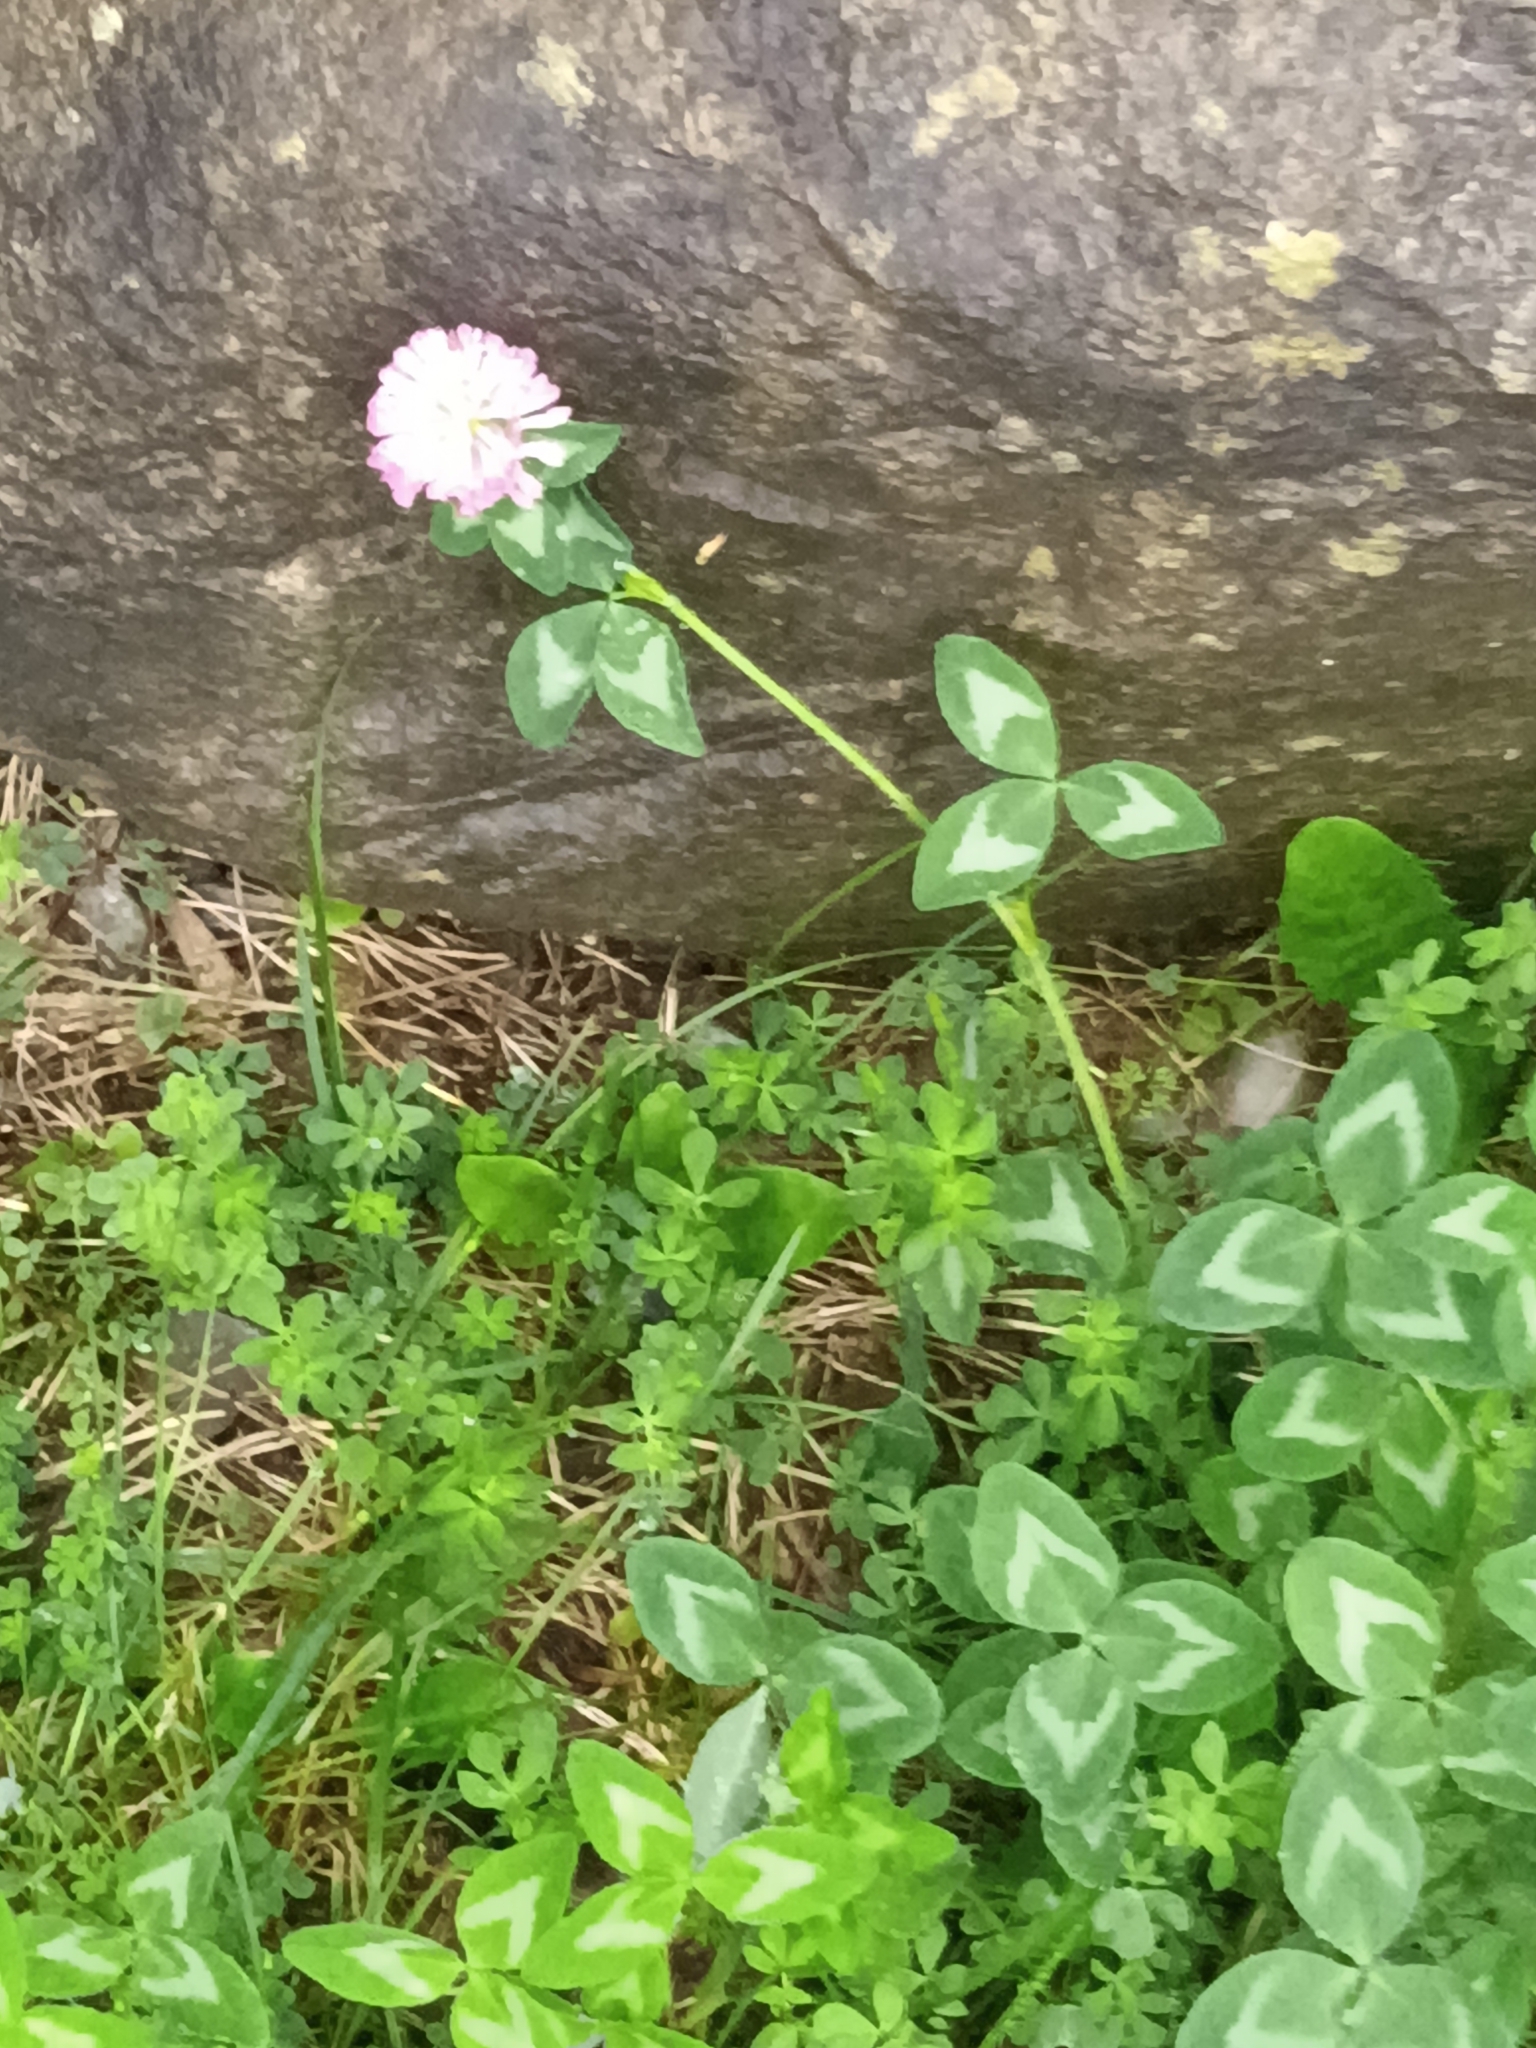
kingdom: Plantae
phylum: Tracheophyta
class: Magnoliopsida
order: Fabales
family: Fabaceae
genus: Trifolium
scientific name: Trifolium pratense
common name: Red clover
